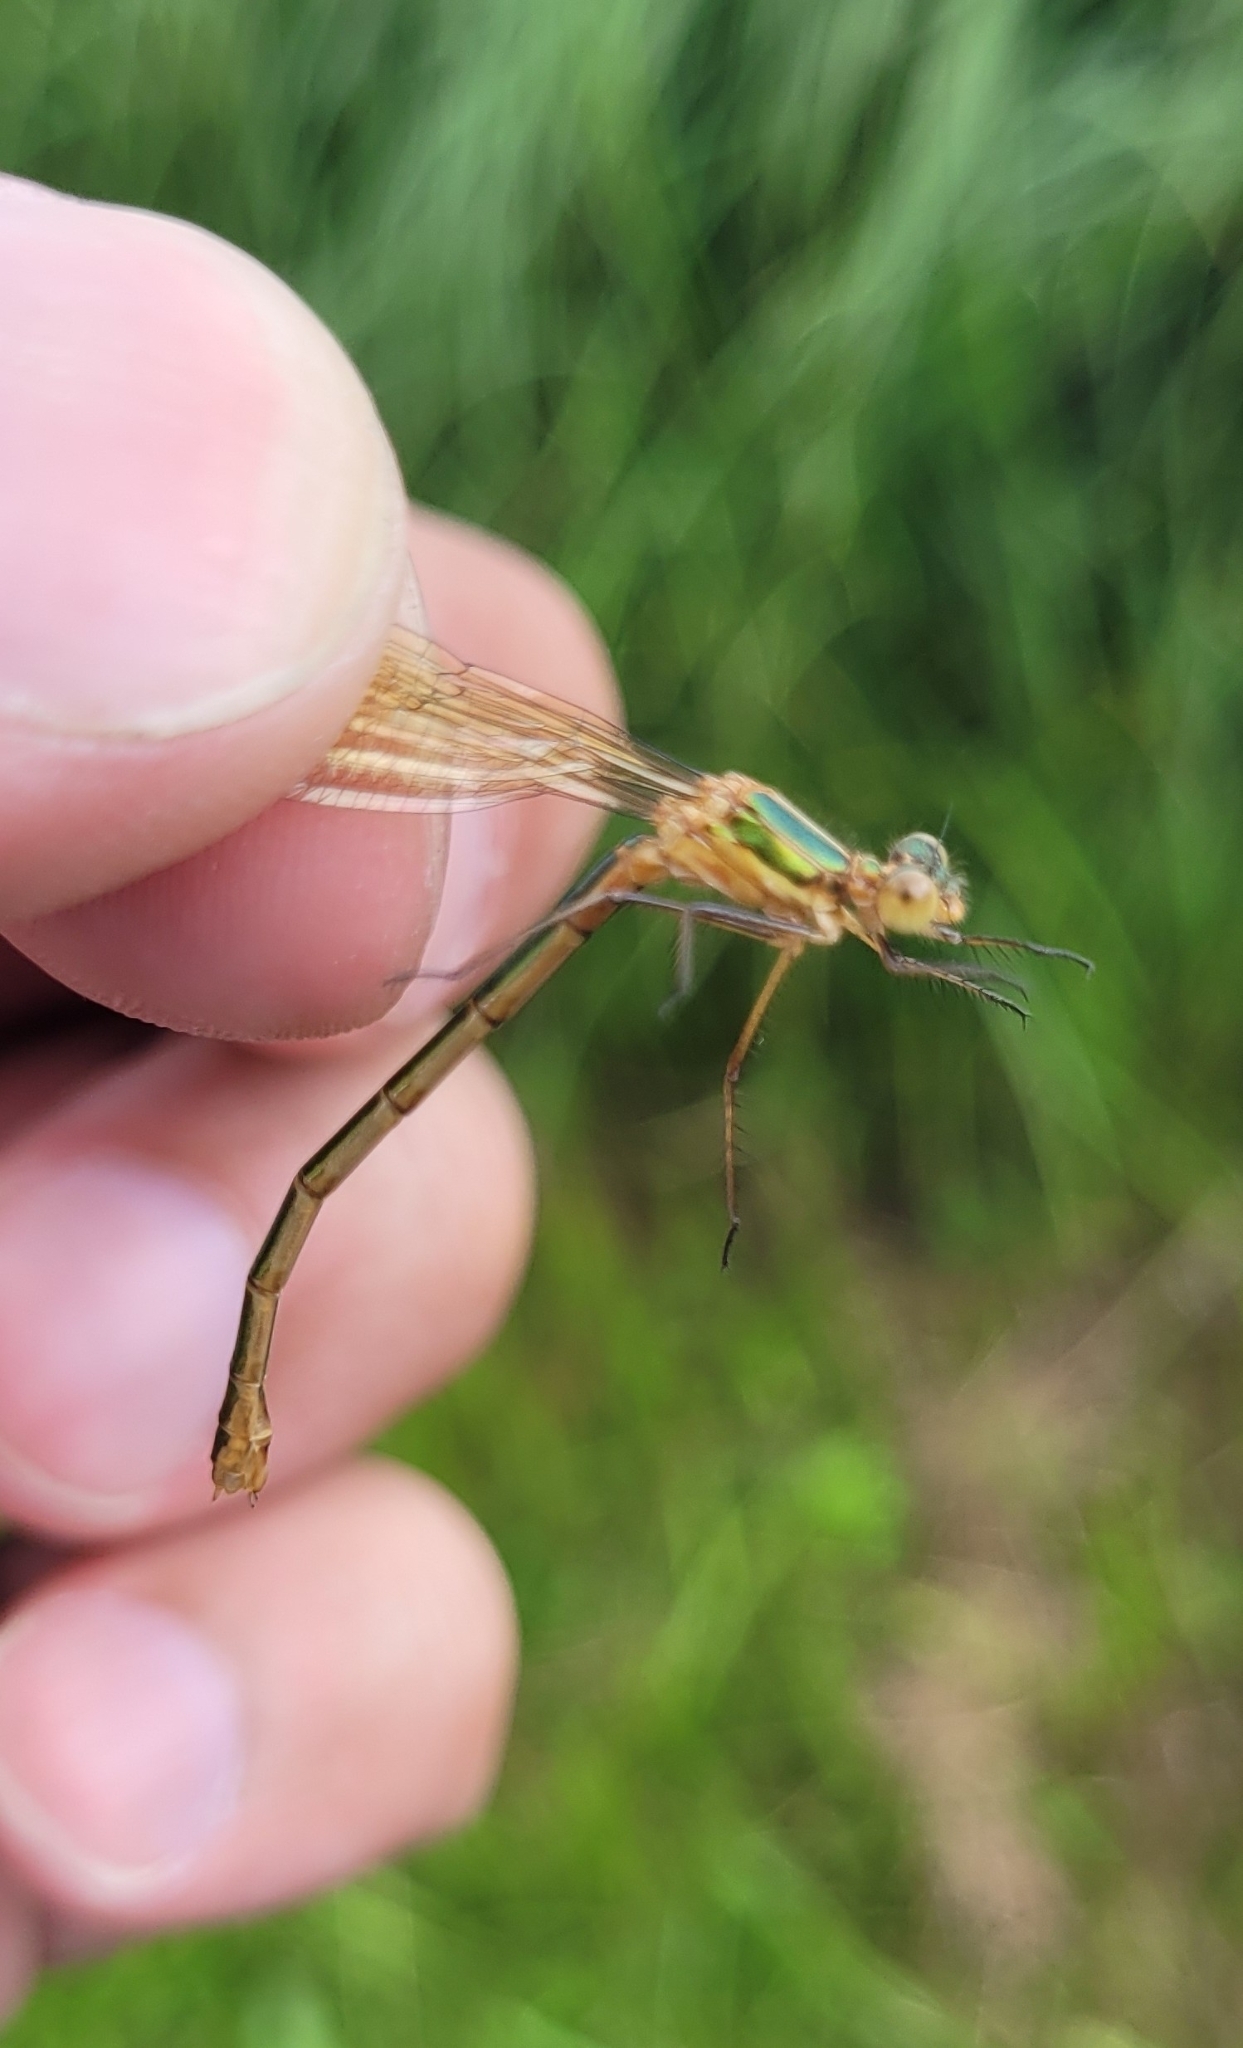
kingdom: Animalia
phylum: Arthropoda
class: Insecta
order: Odonata
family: Lestidae
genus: Lestes
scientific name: Lestes sponsa
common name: Common spreadwing
